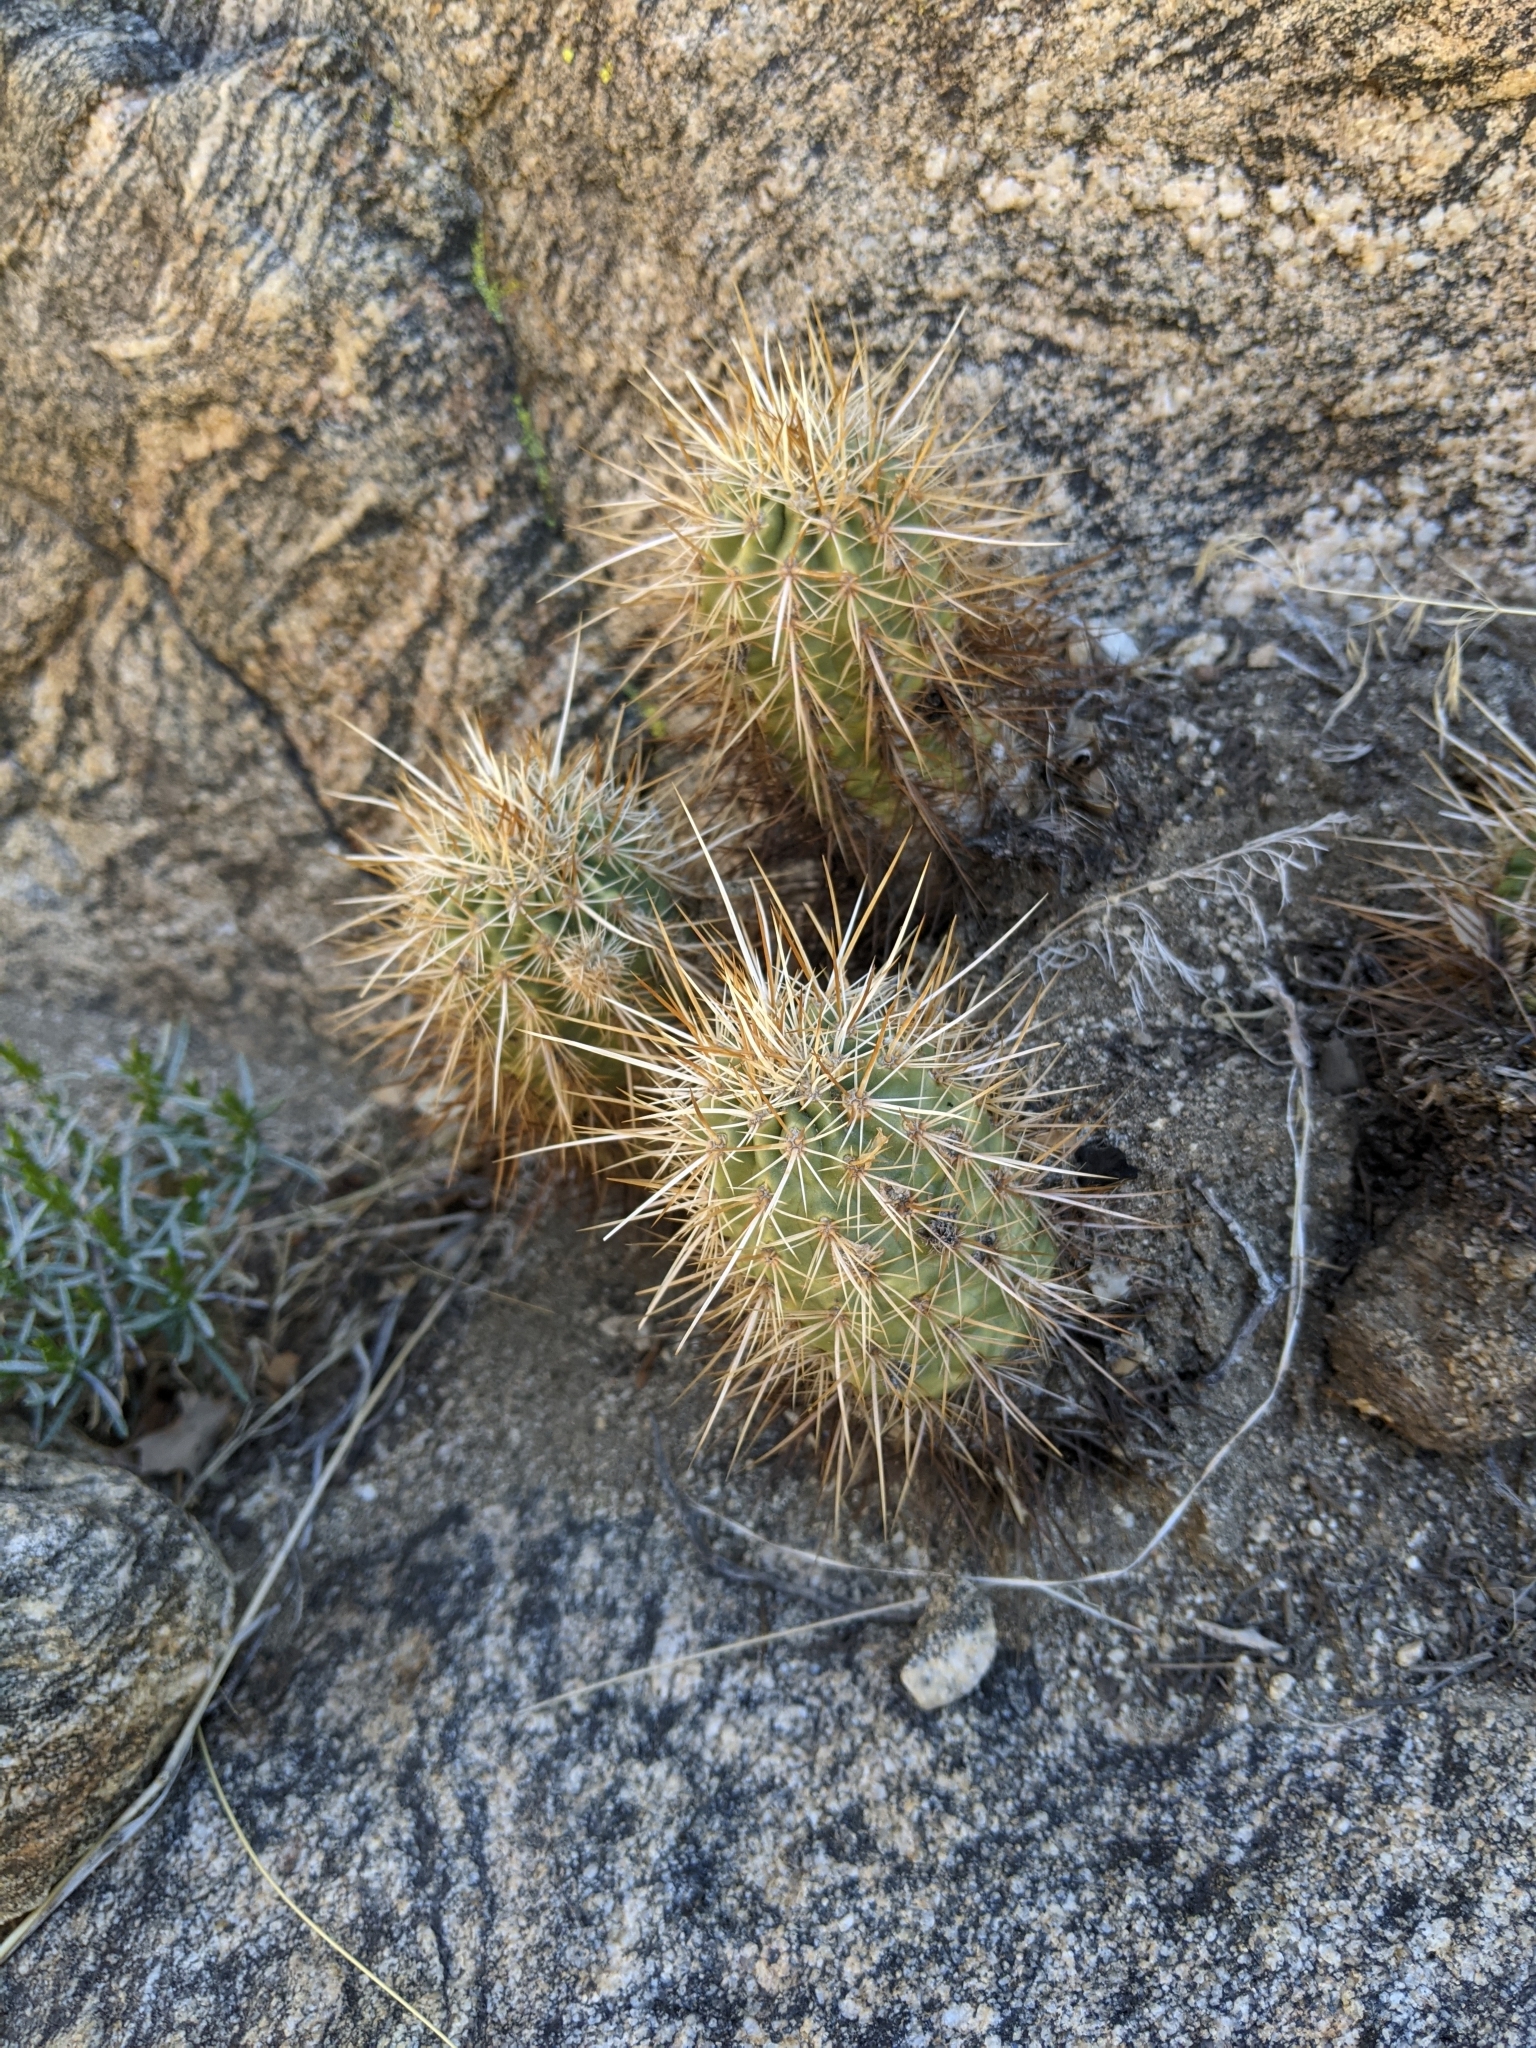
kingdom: Plantae
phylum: Tracheophyta
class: Magnoliopsida
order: Caryophyllales
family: Cactaceae
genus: Echinocereus
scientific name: Echinocereus engelmannii
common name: Engelmann's hedgehog cactus
